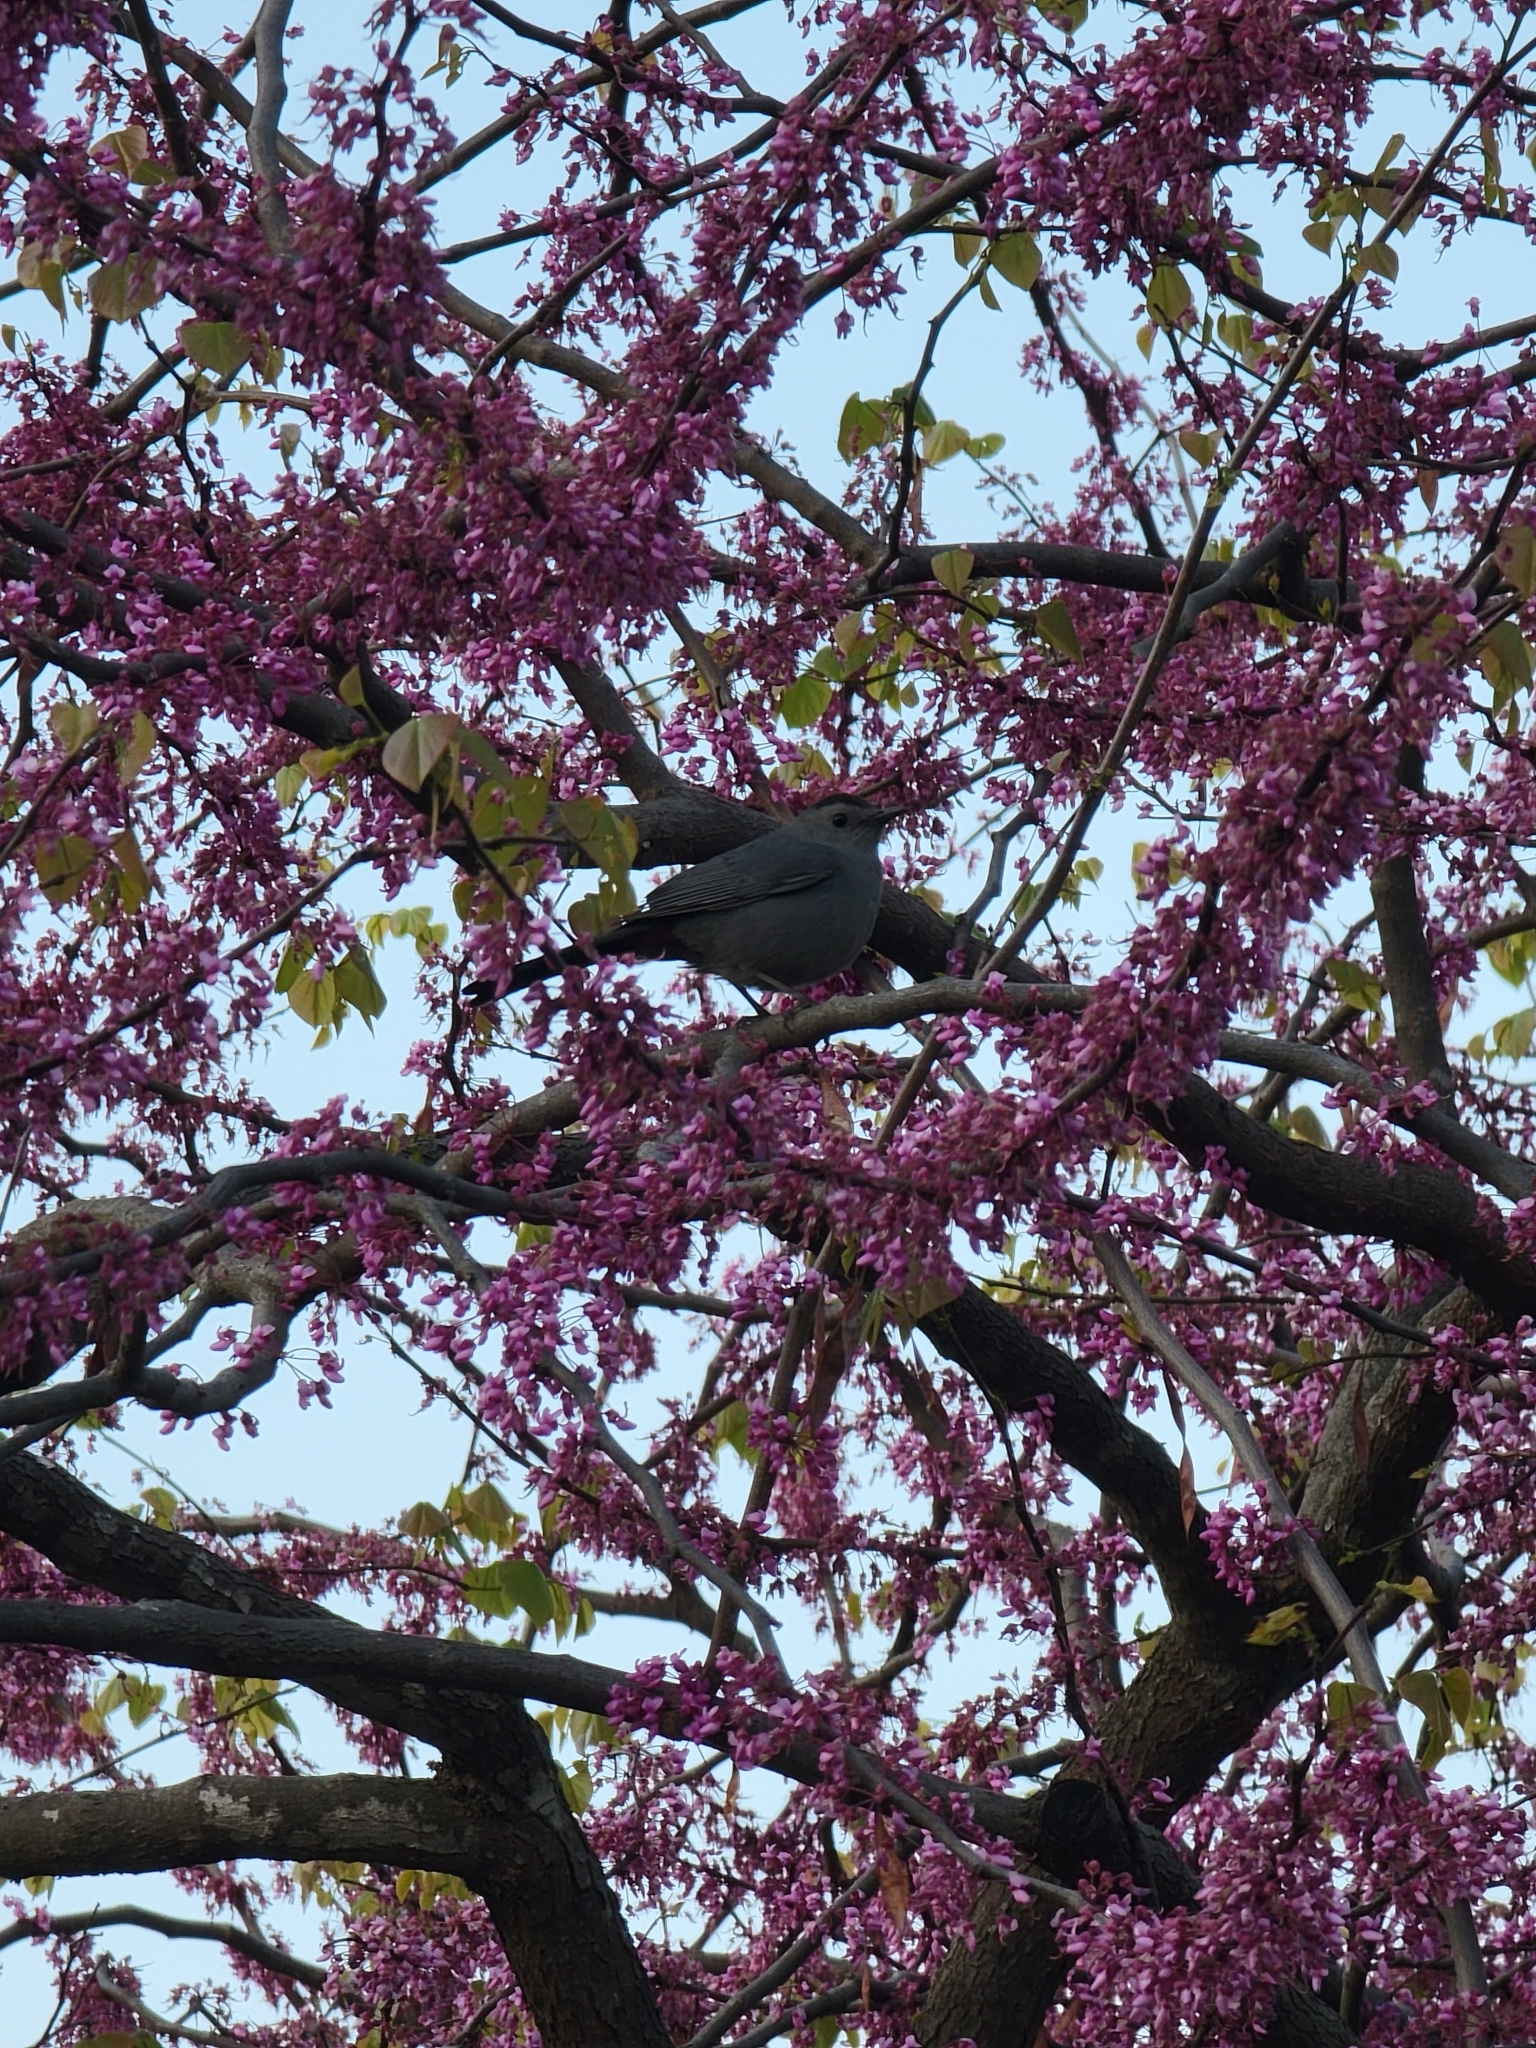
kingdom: Animalia
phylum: Chordata
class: Aves
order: Passeriformes
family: Mimidae
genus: Dumetella
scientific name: Dumetella carolinensis
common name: Gray catbird
